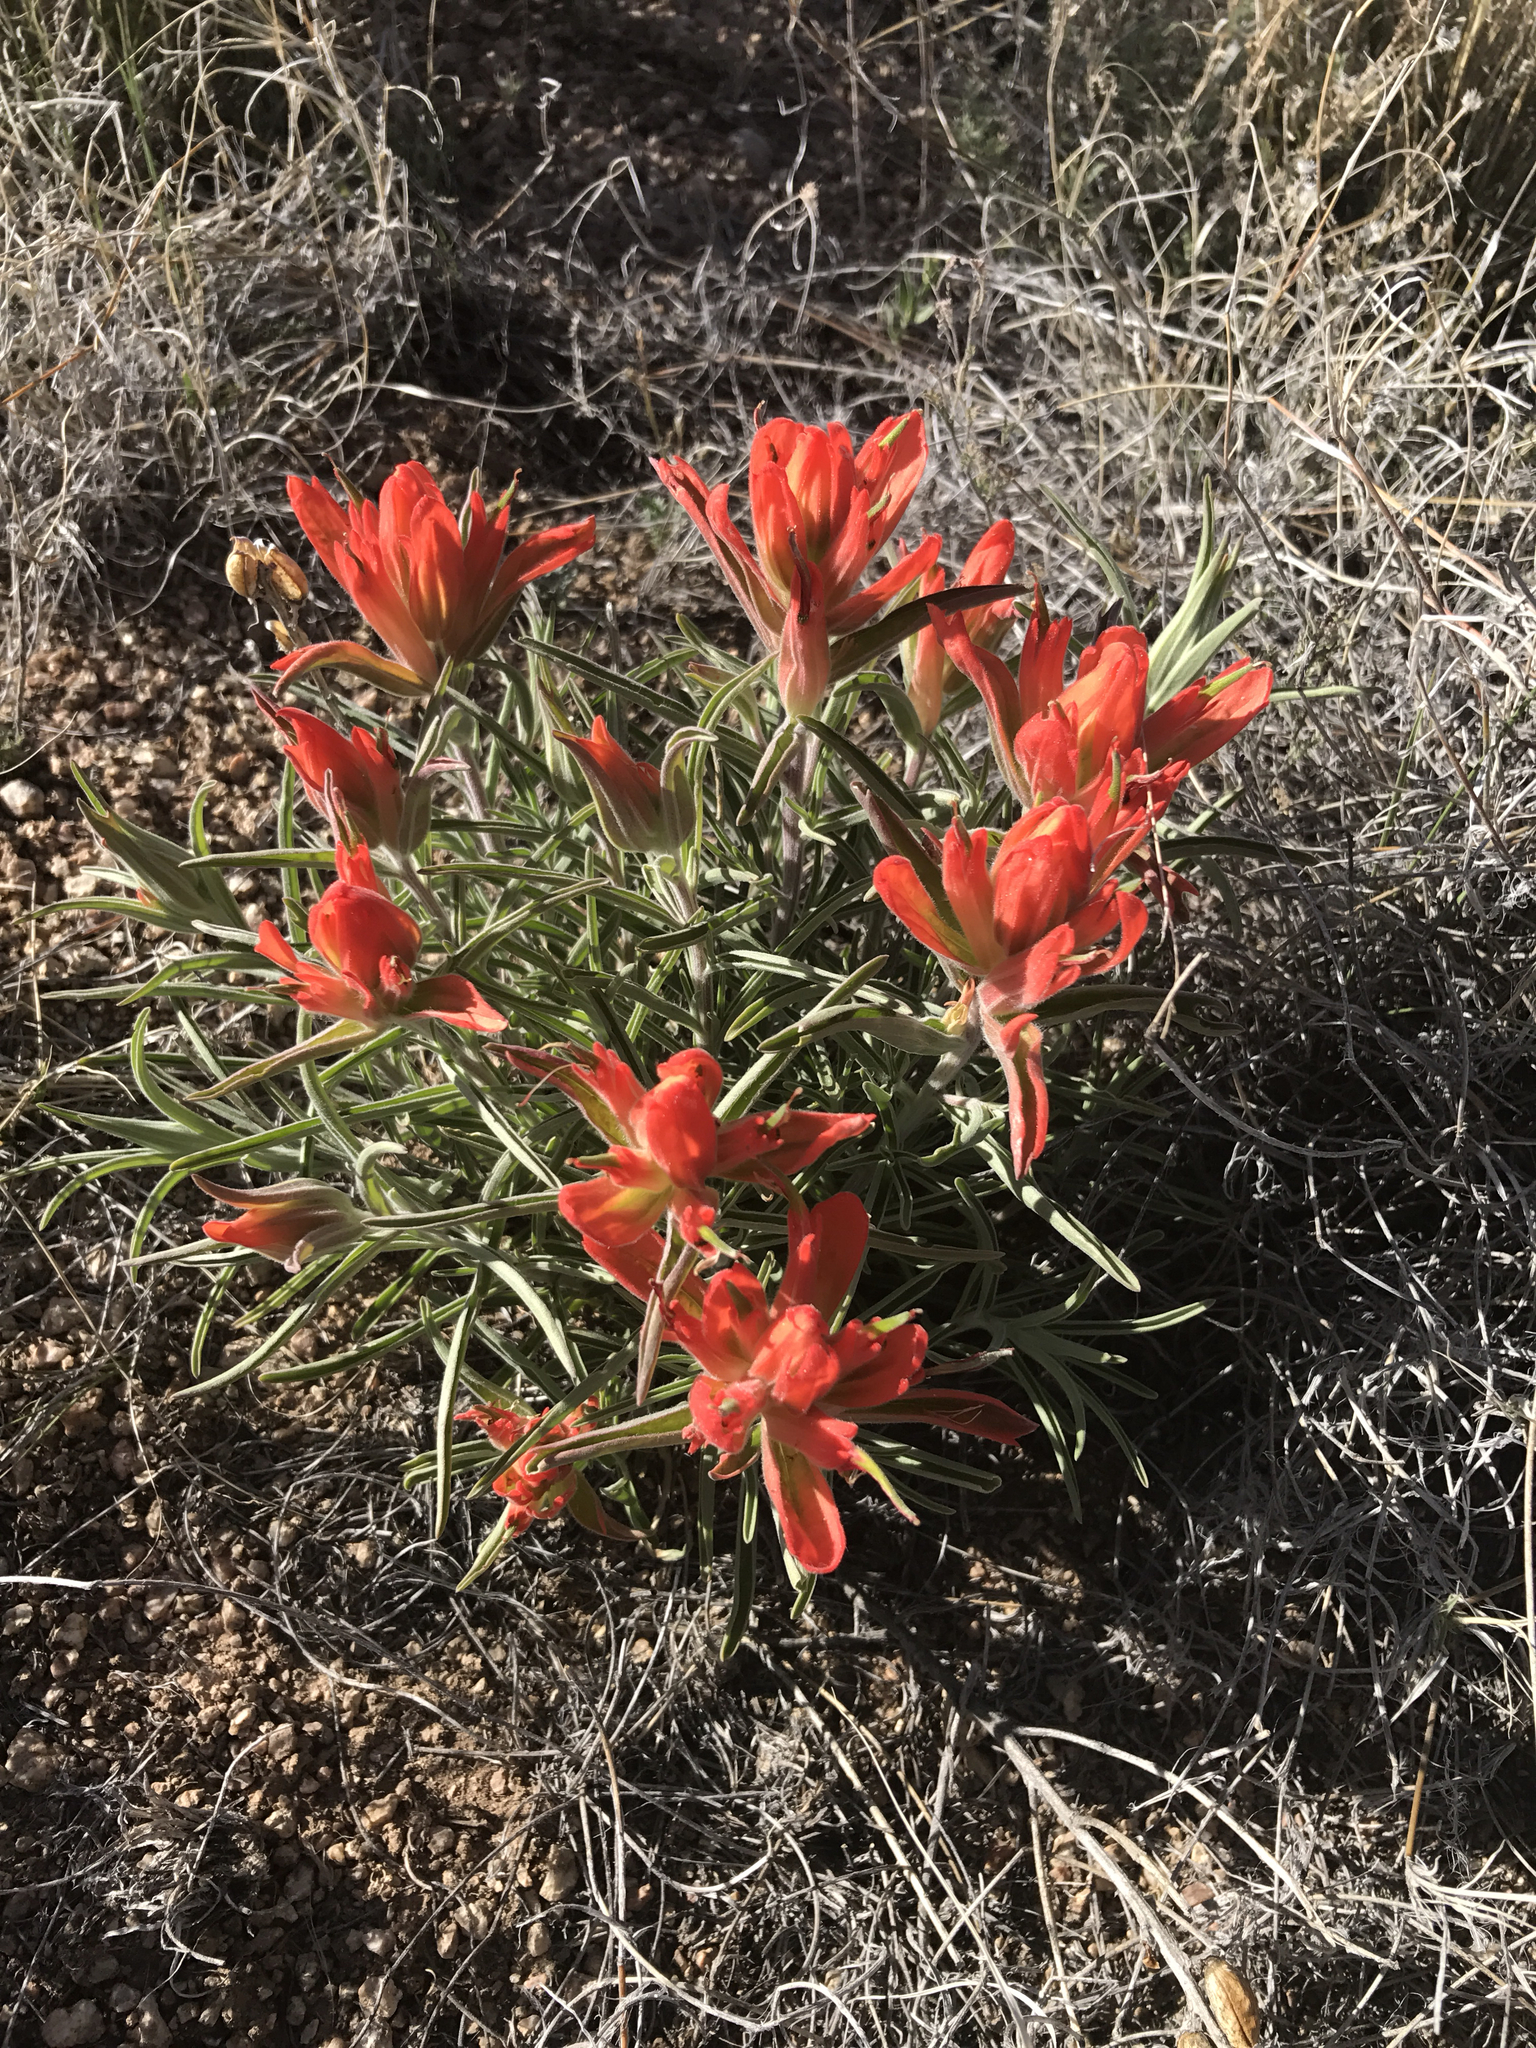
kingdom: Plantae
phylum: Tracheophyta
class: Magnoliopsida
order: Lamiales
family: Orobanchaceae
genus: Castilleja
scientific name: Castilleja integra
